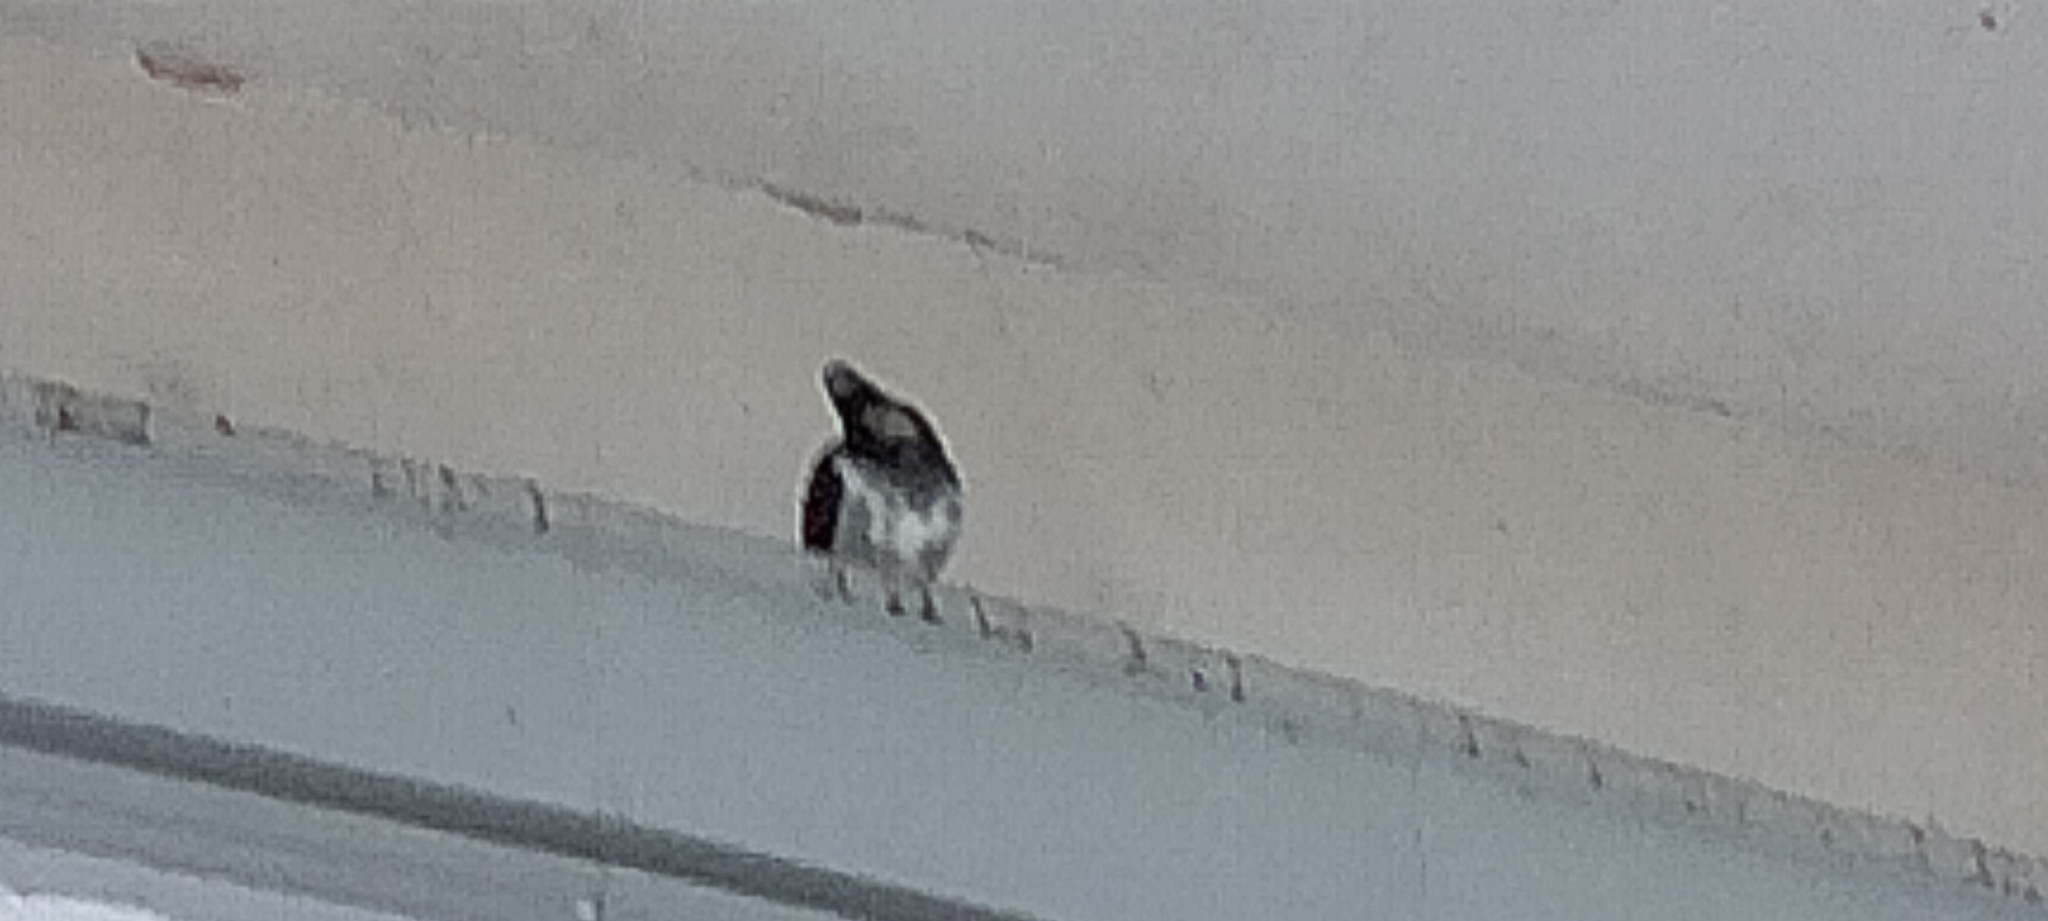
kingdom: Animalia
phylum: Chordata
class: Aves
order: Columbiformes
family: Columbidae
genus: Columba
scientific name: Columba livia
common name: Rock pigeon
